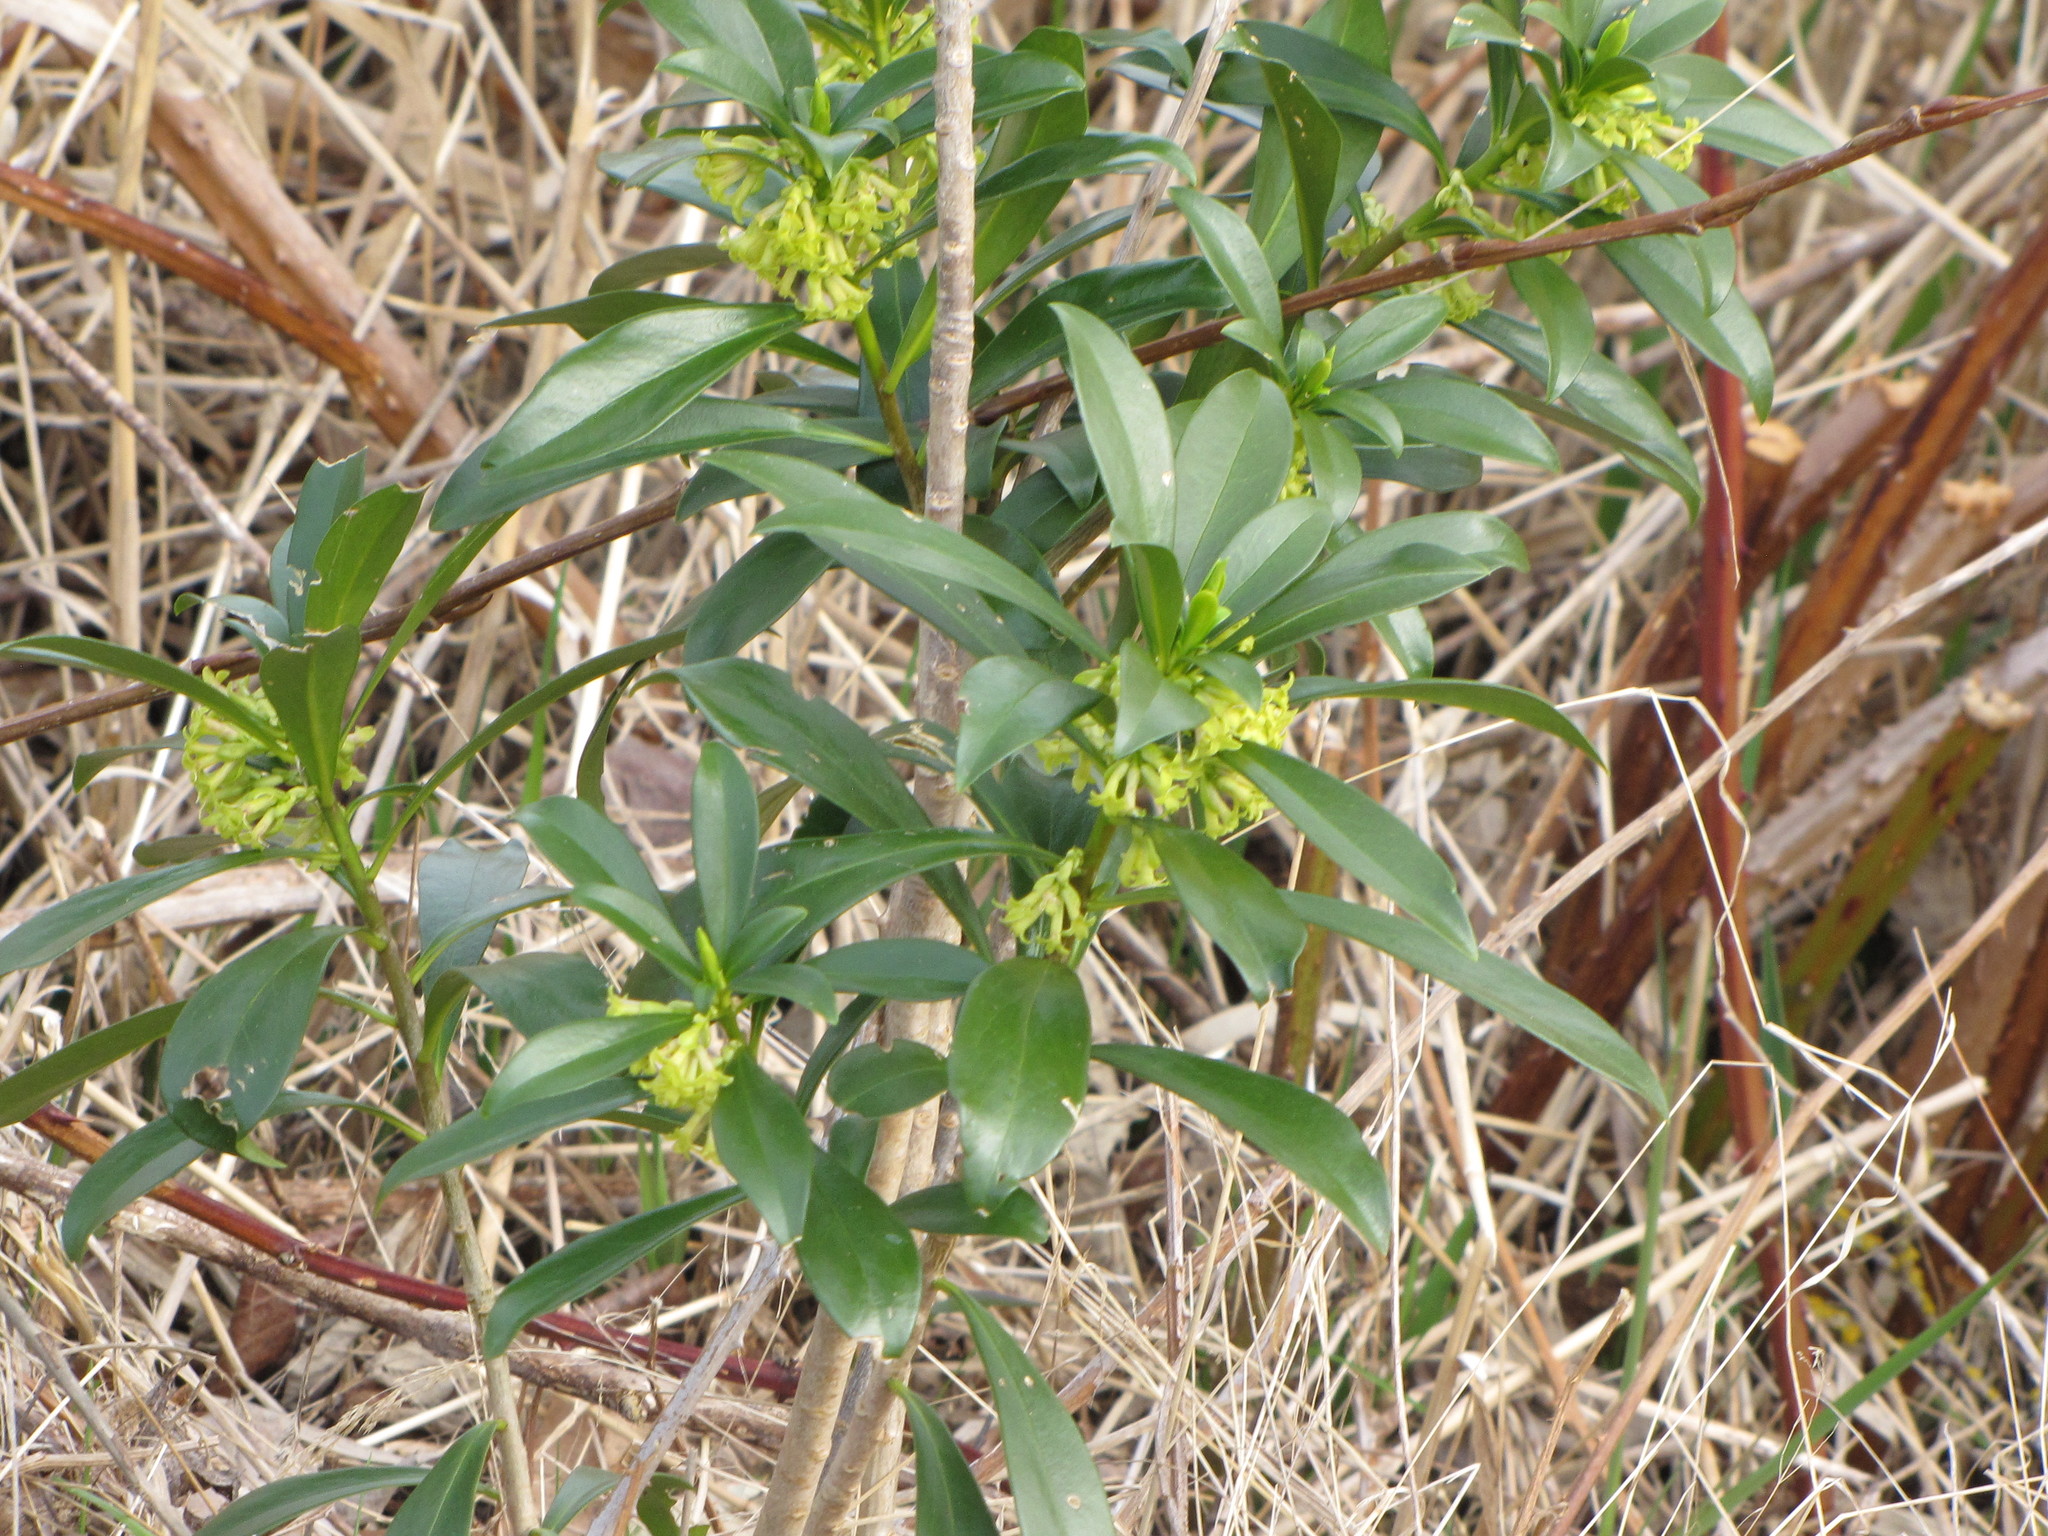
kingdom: Plantae
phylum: Tracheophyta
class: Magnoliopsida
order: Malvales
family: Thymelaeaceae
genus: Daphne
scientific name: Daphne laureola
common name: Spurge-laurel
